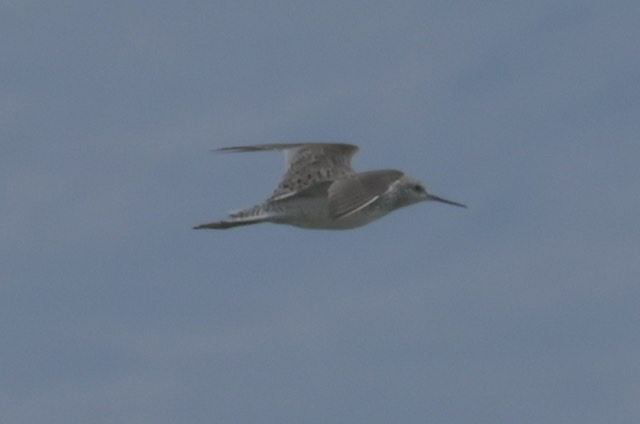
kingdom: Animalia
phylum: Chordata
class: Aves
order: Charadriiformes
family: Scolopacidae
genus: Tringa
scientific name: Tringa stagnatilis
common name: Marsh sandpiper
